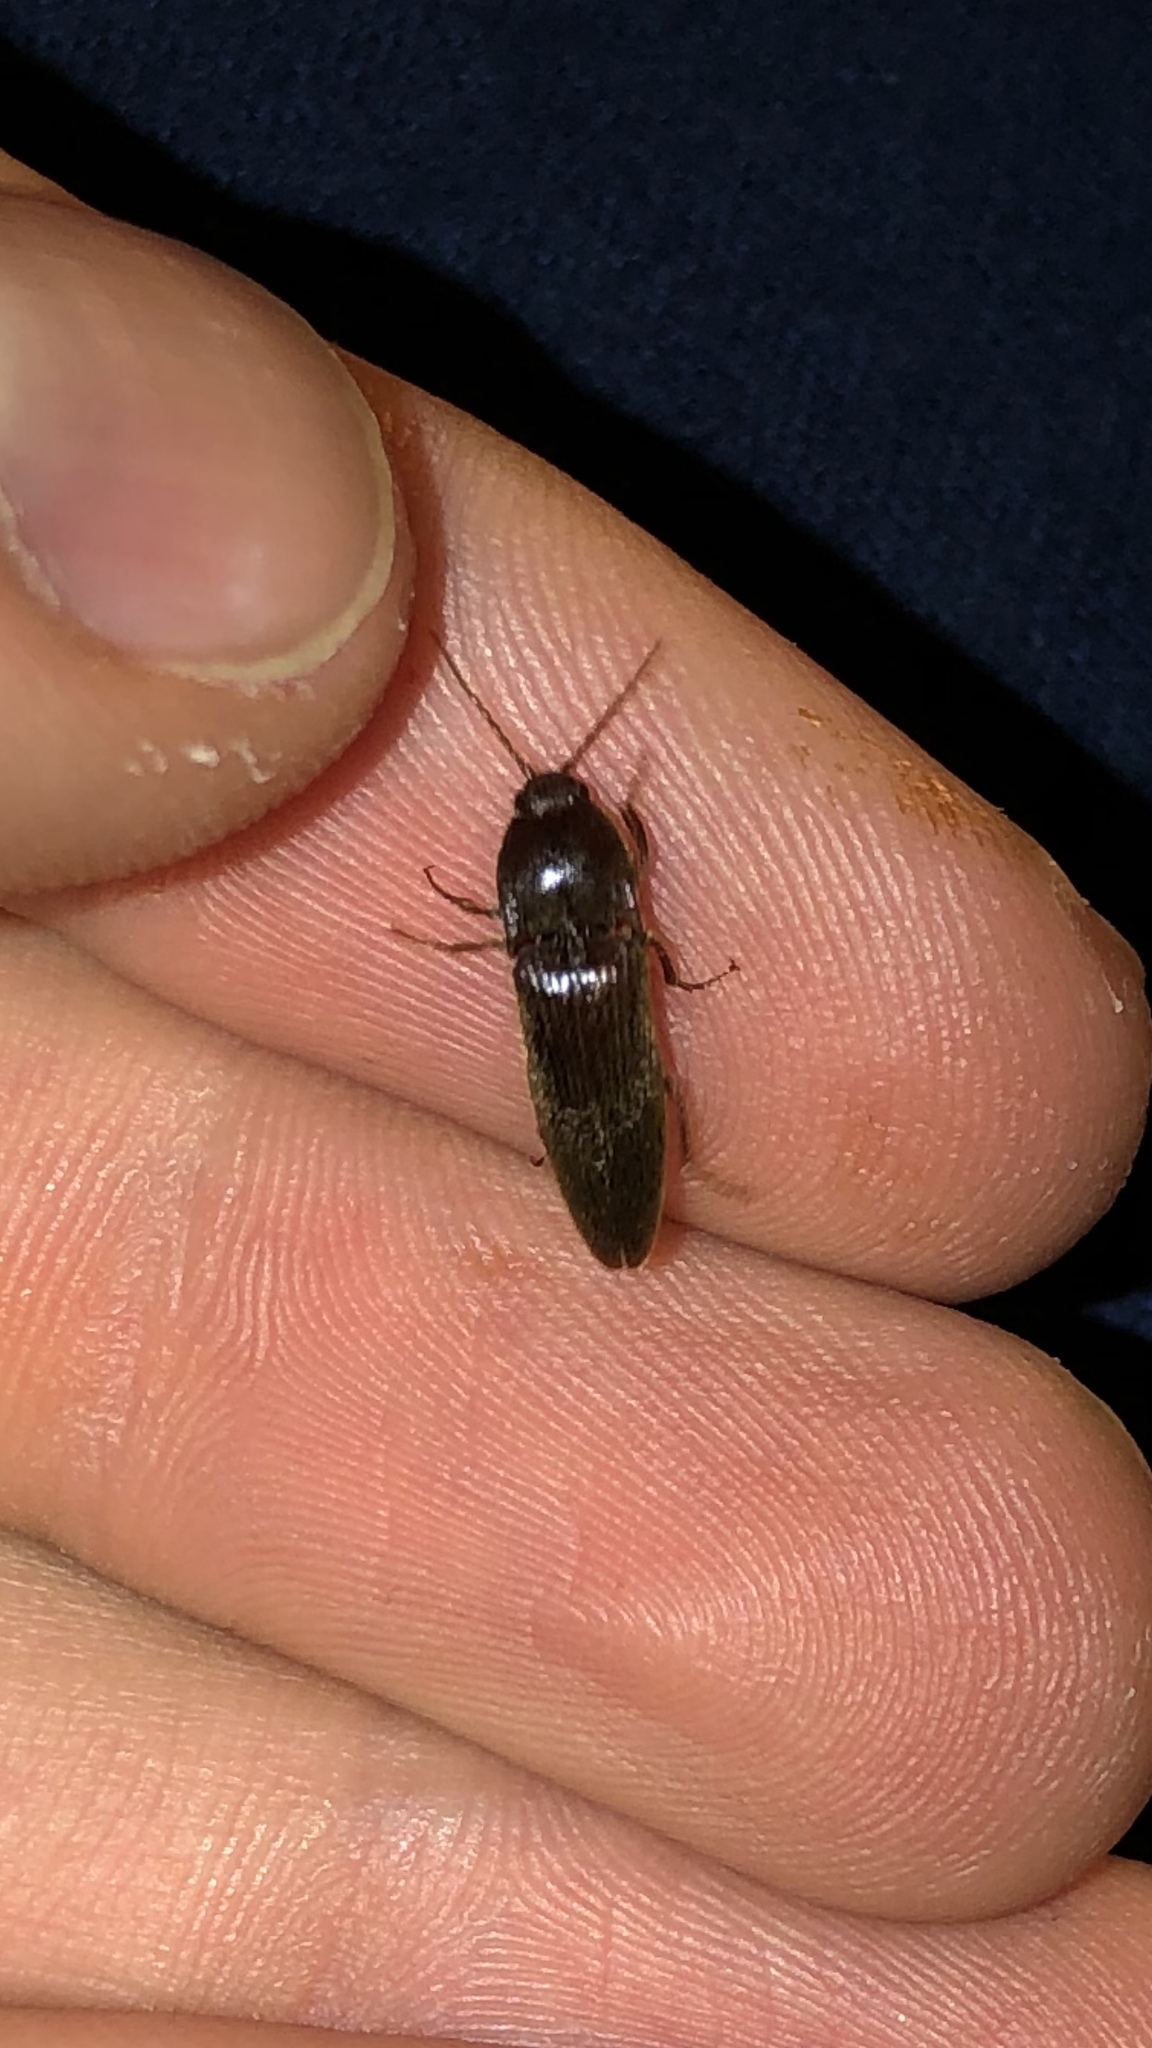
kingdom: Animalia
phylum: Arthropoda
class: Insecta
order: Coleoptera
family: Elateridae
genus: Melanotus
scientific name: Melanotus
